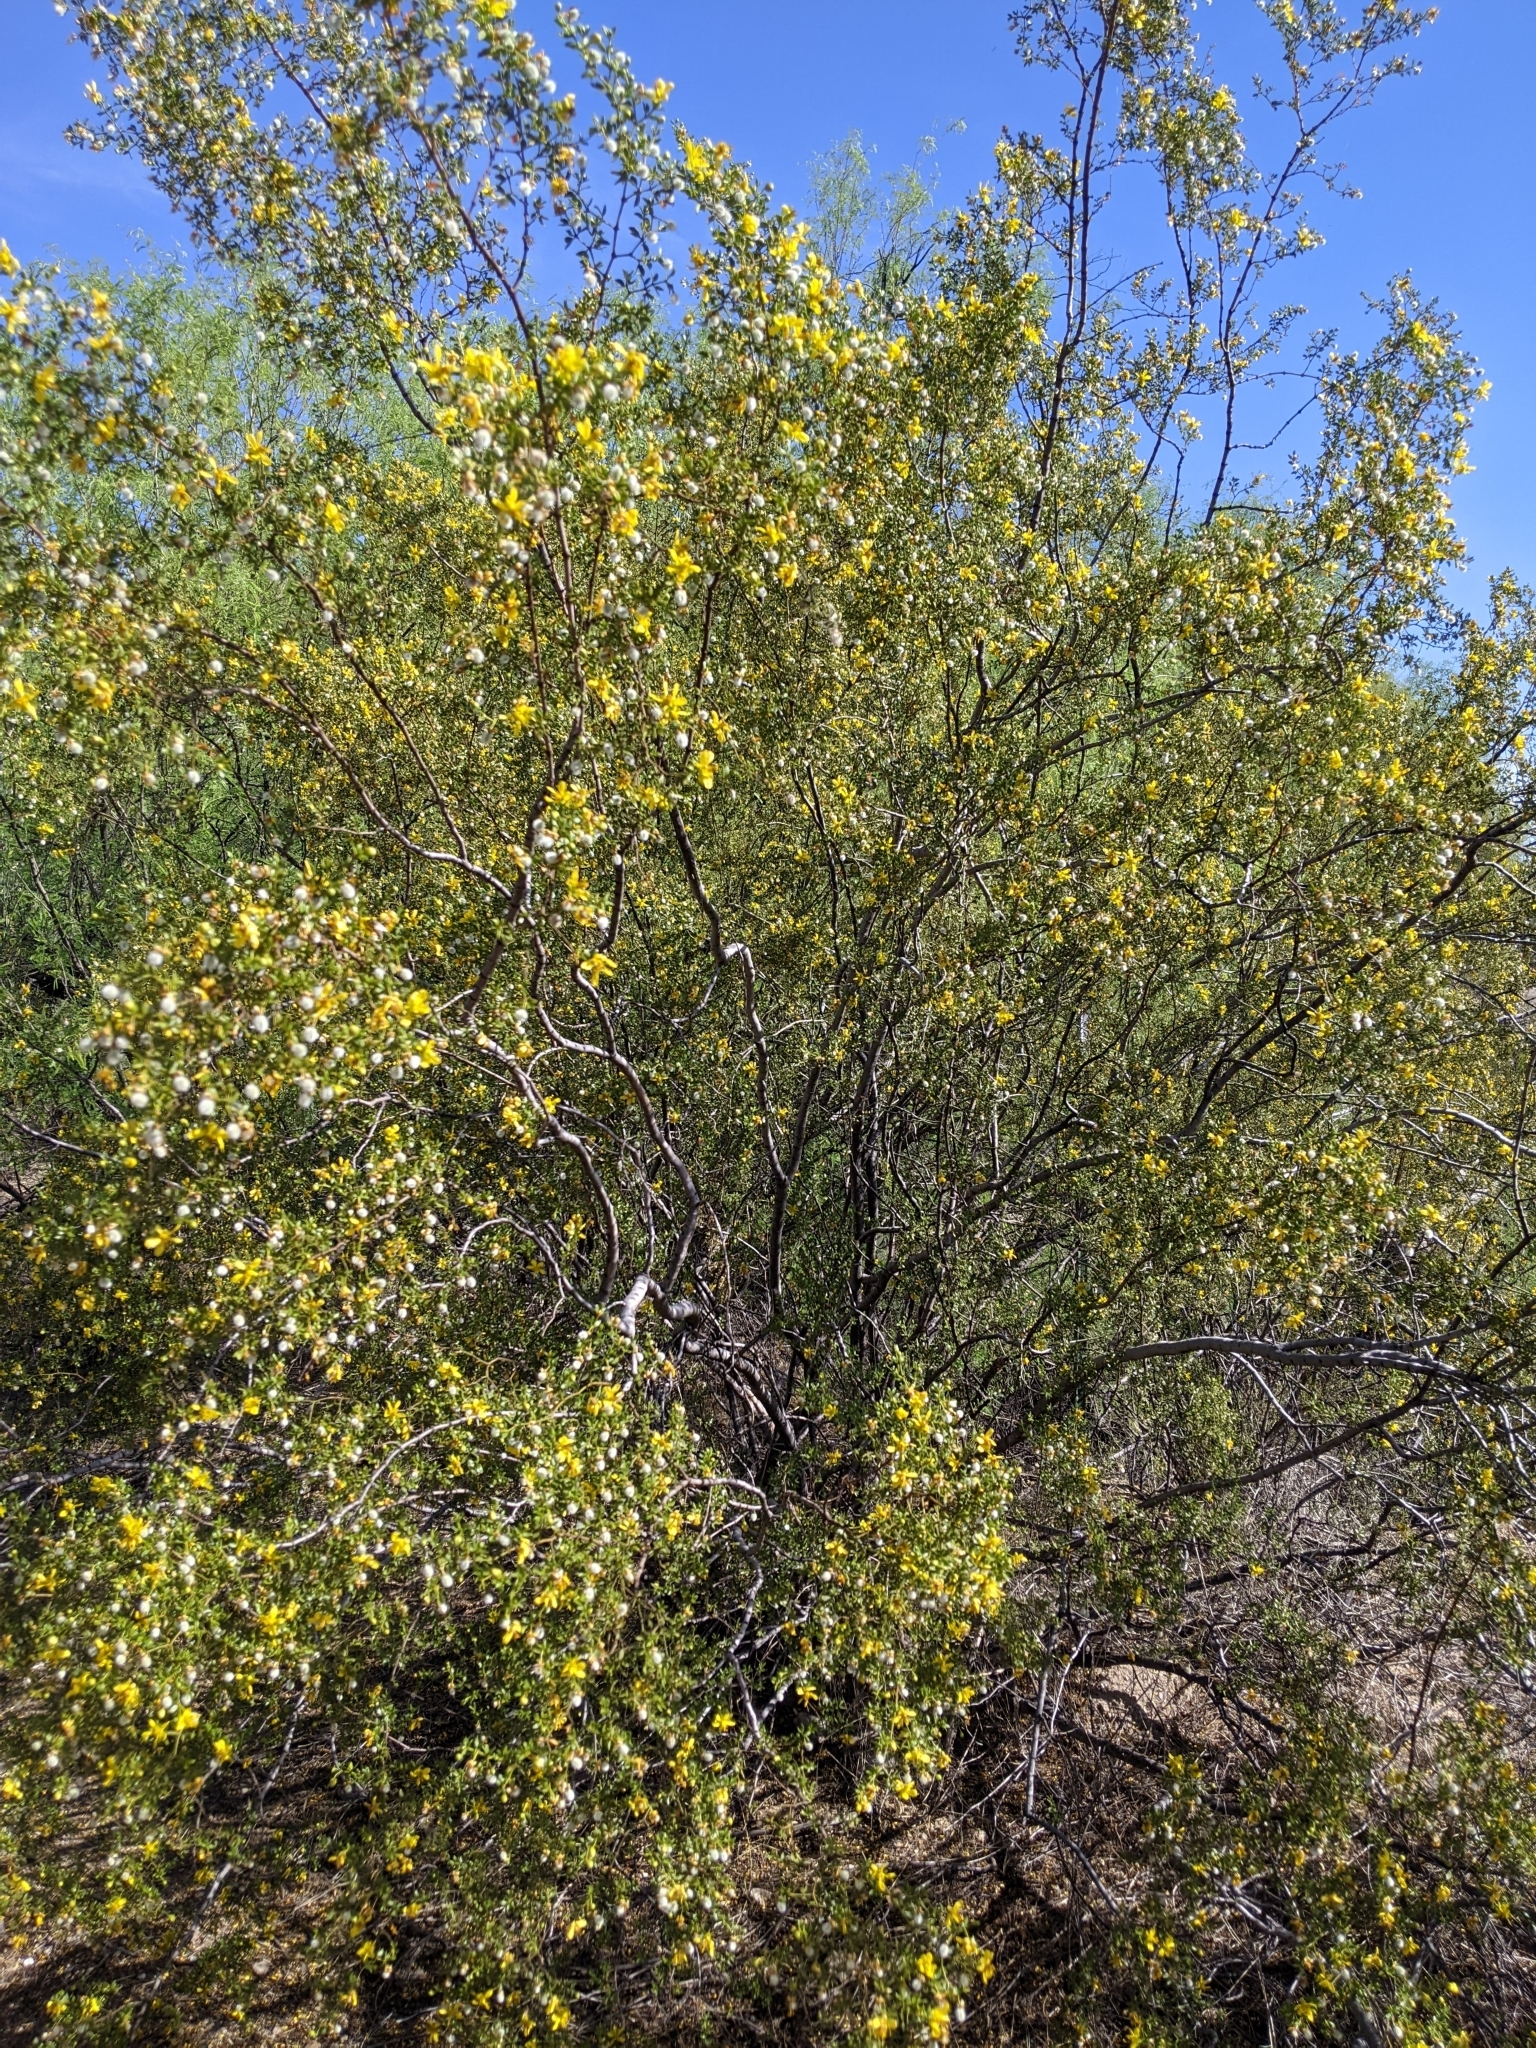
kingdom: Plantae
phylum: Tracheophyta
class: Magnoliopsida
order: Zygophyllales
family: Zygophyllaceae
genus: Larrea
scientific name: Larrea tridentata
